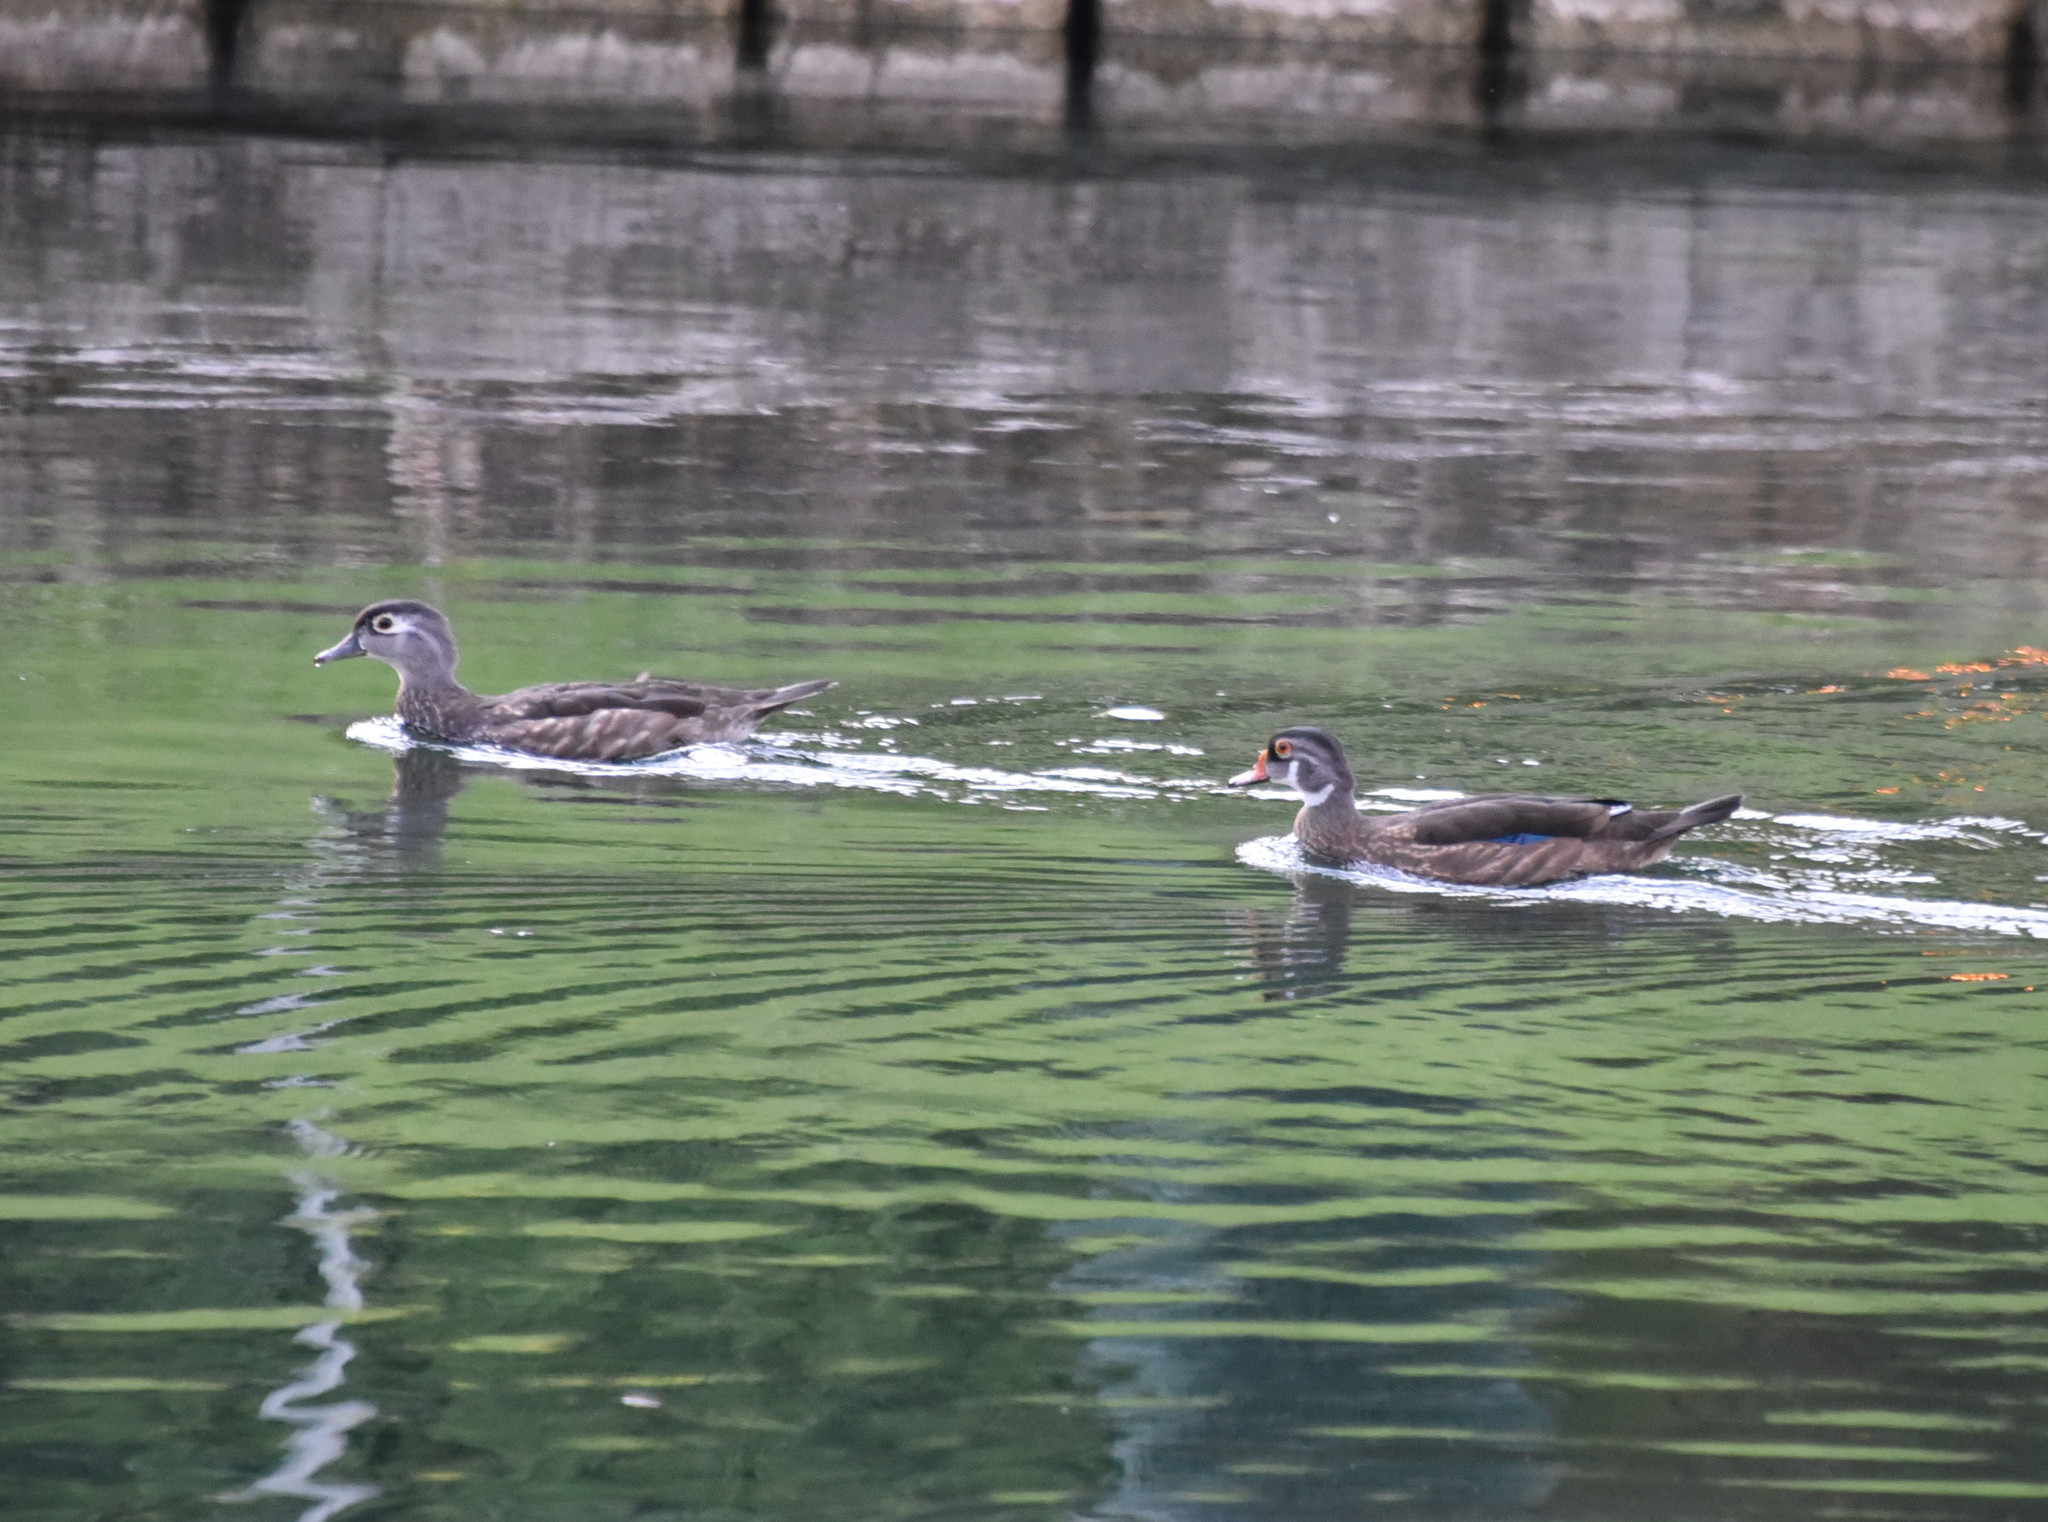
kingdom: Animalia
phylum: Chordata
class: Aves
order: Anseriformes
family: Anatidae
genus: Aix
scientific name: Aix sponsa
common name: Wood duck
